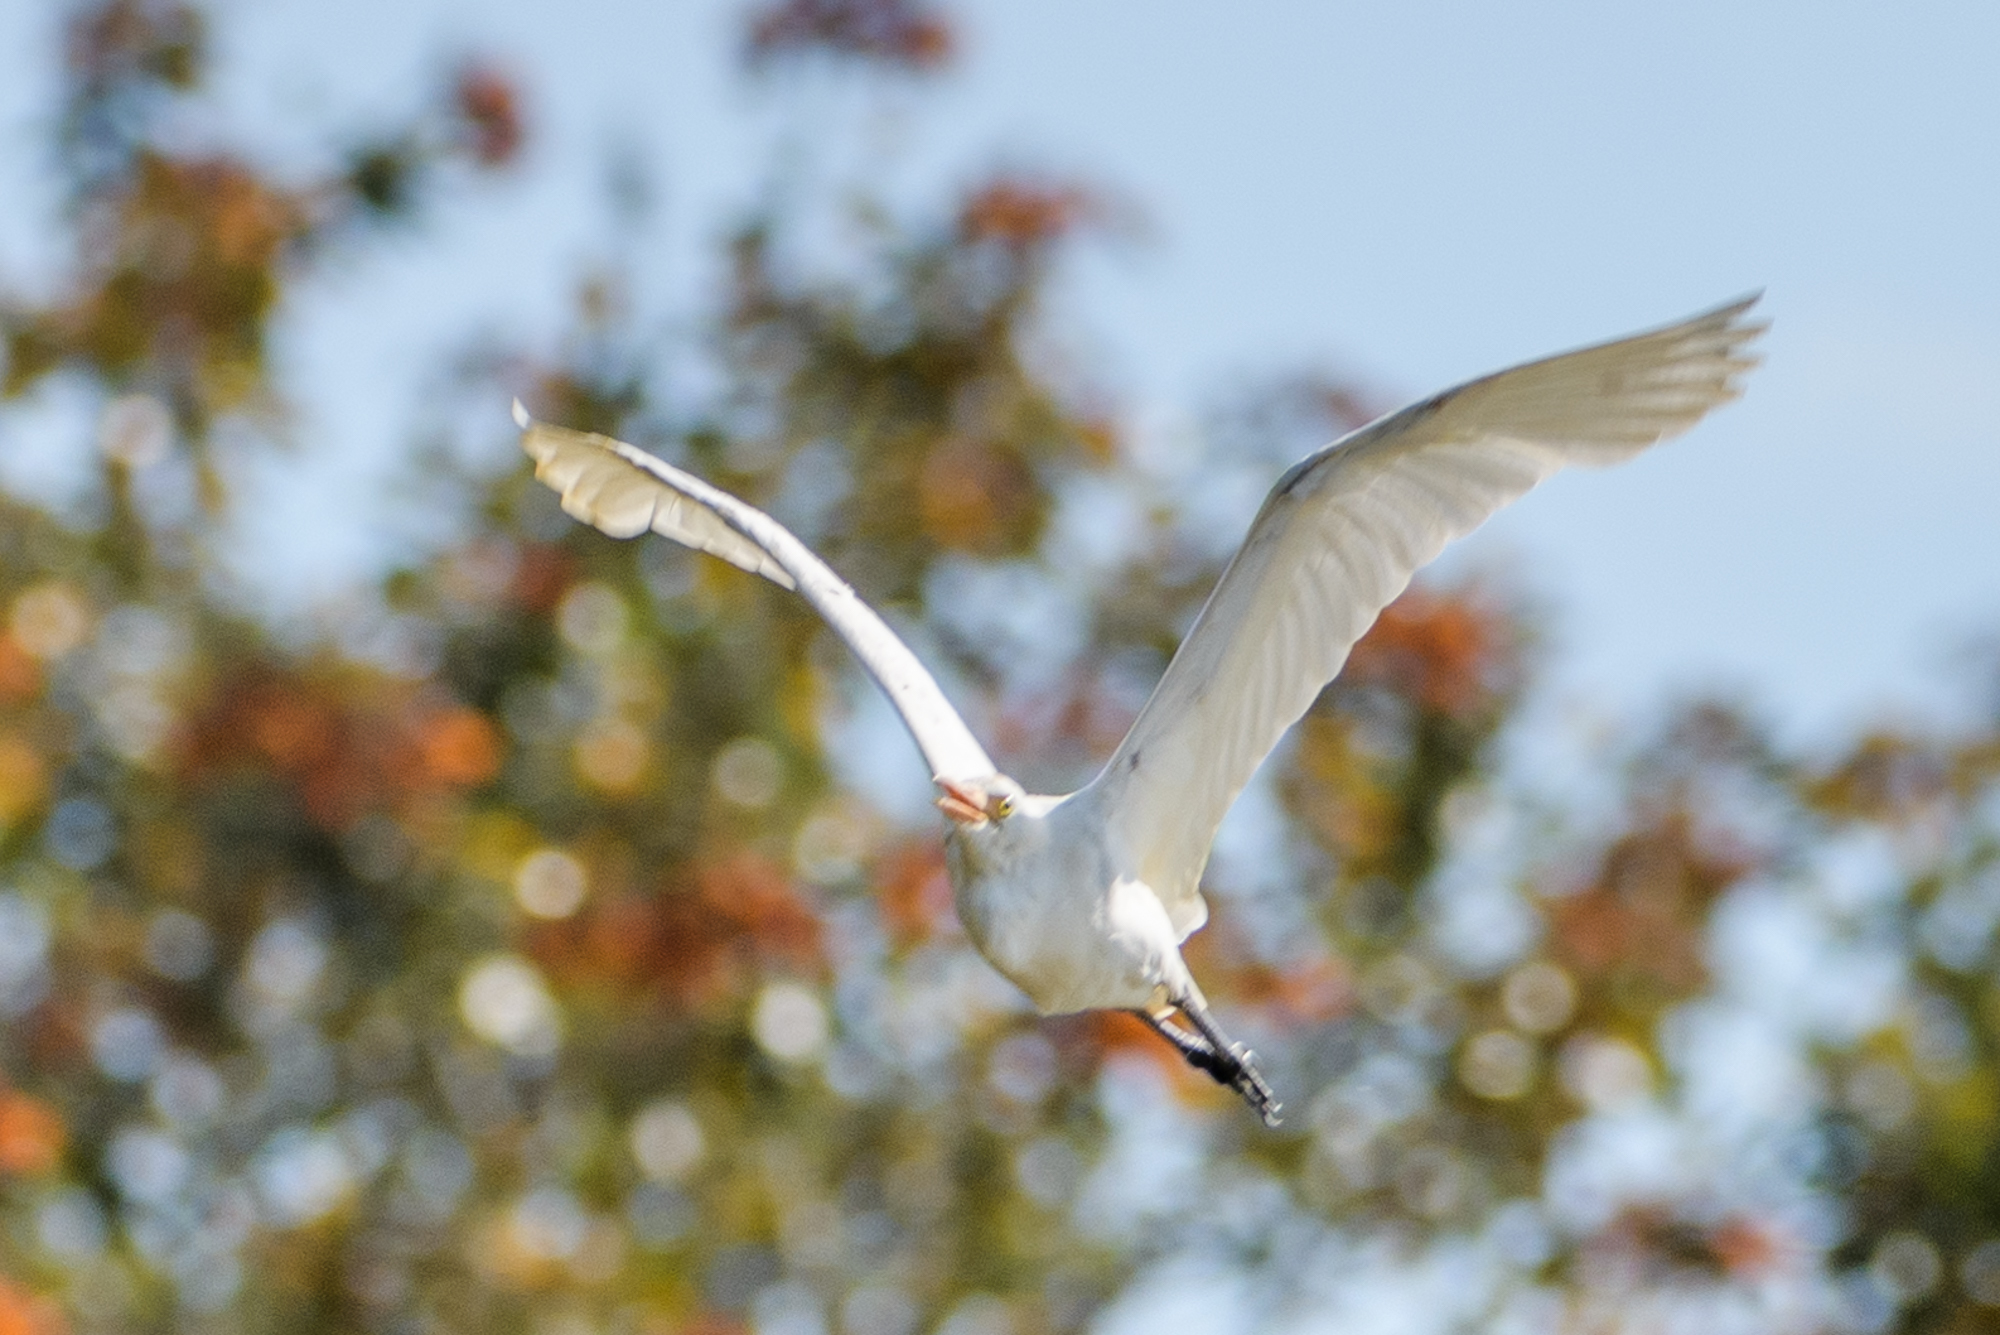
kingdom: Animalia
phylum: Chordata
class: Aves
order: Pelecaniformes
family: Ardeidae
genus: Bubulcus
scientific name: Bubulcus ibis
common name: Cattle egret
